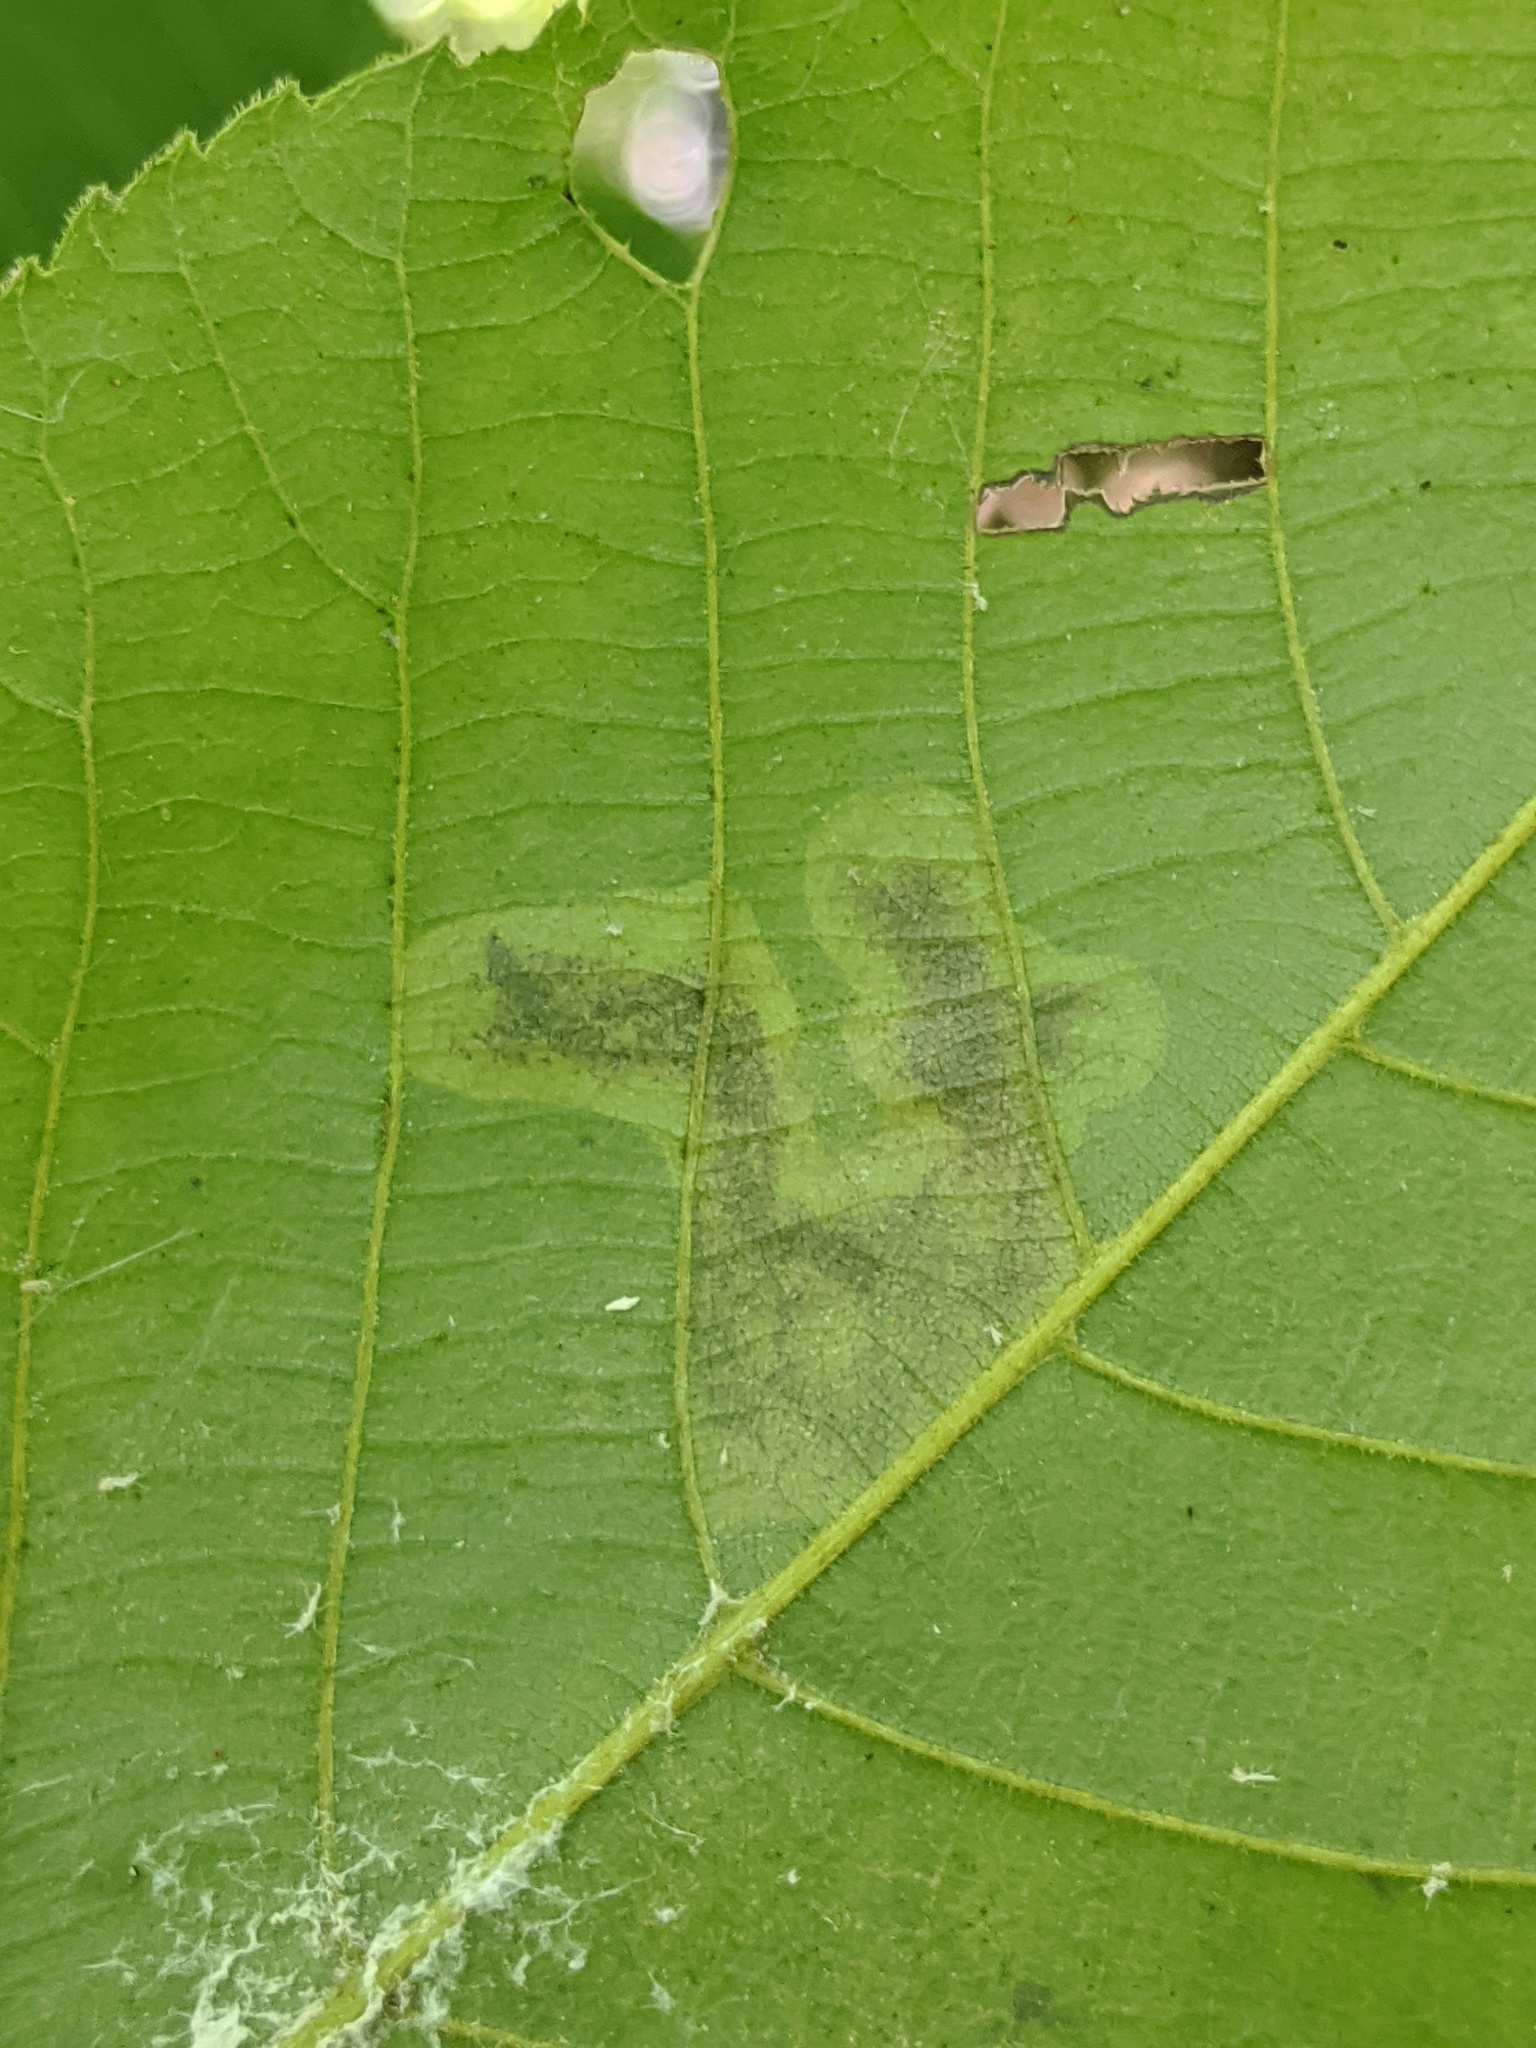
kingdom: Animalia
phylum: Arthropoda
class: Insecta
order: Lepidoptera
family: Gracillariidae
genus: Cameraria
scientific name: Cameraria caryaefoliella
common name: Pecan leafminer moth
